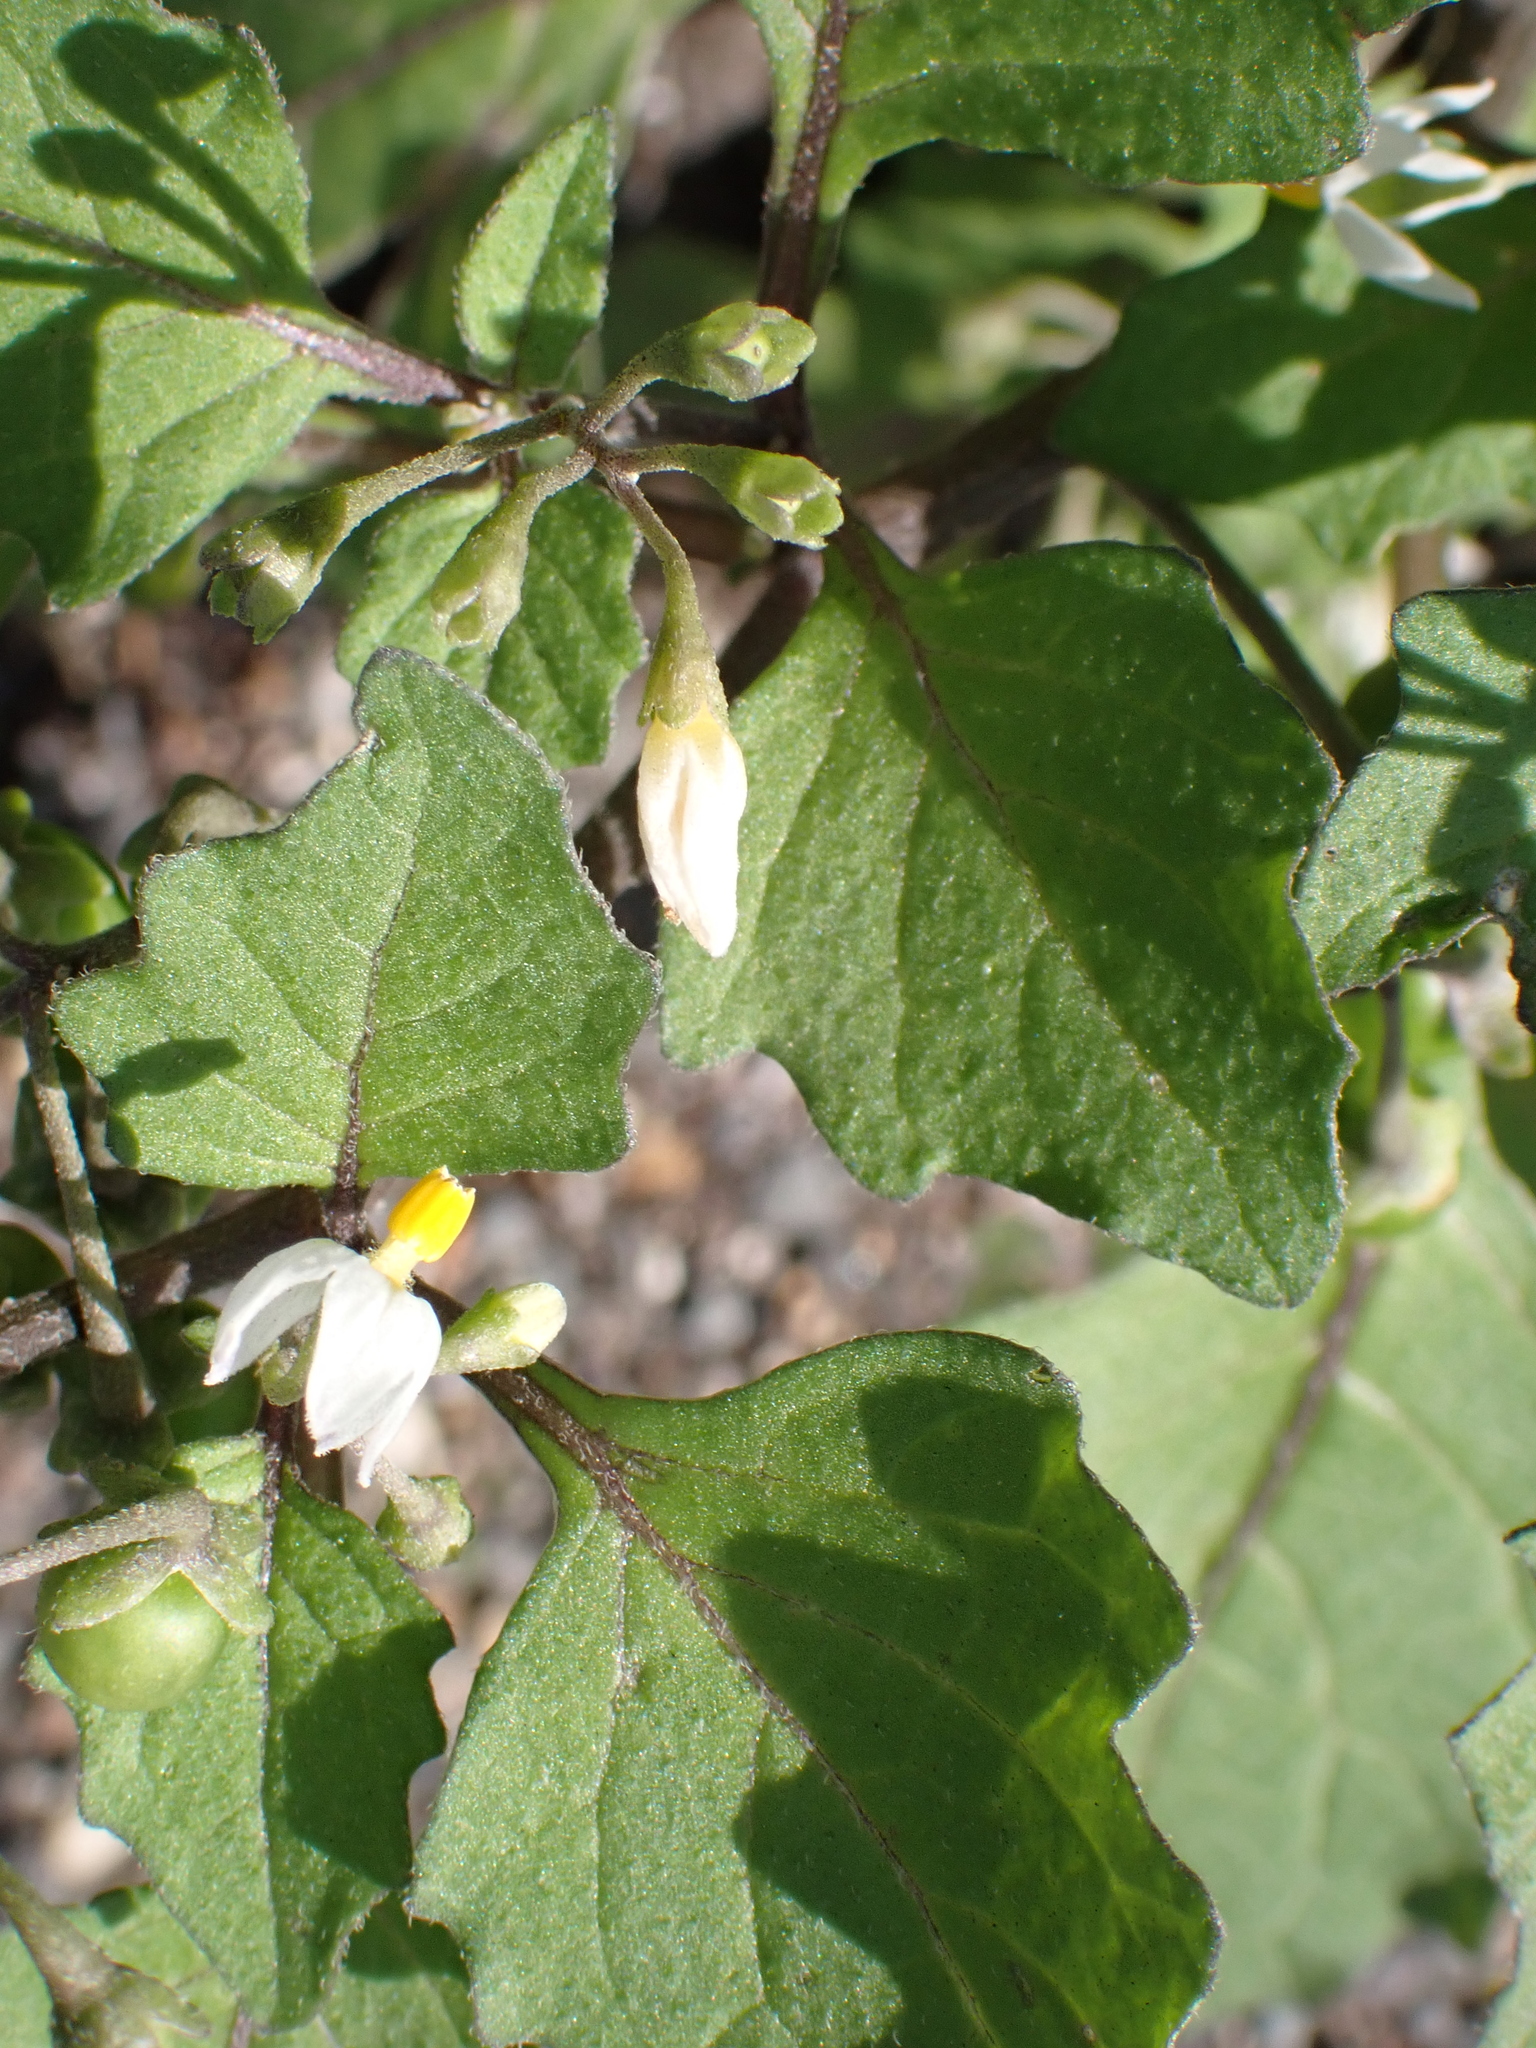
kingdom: Plantae
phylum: Tracheophyta
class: Magnoliopsida
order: Solanales
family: Solanaceae
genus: Solanum
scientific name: Solanum nigrum
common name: Black nightshade
